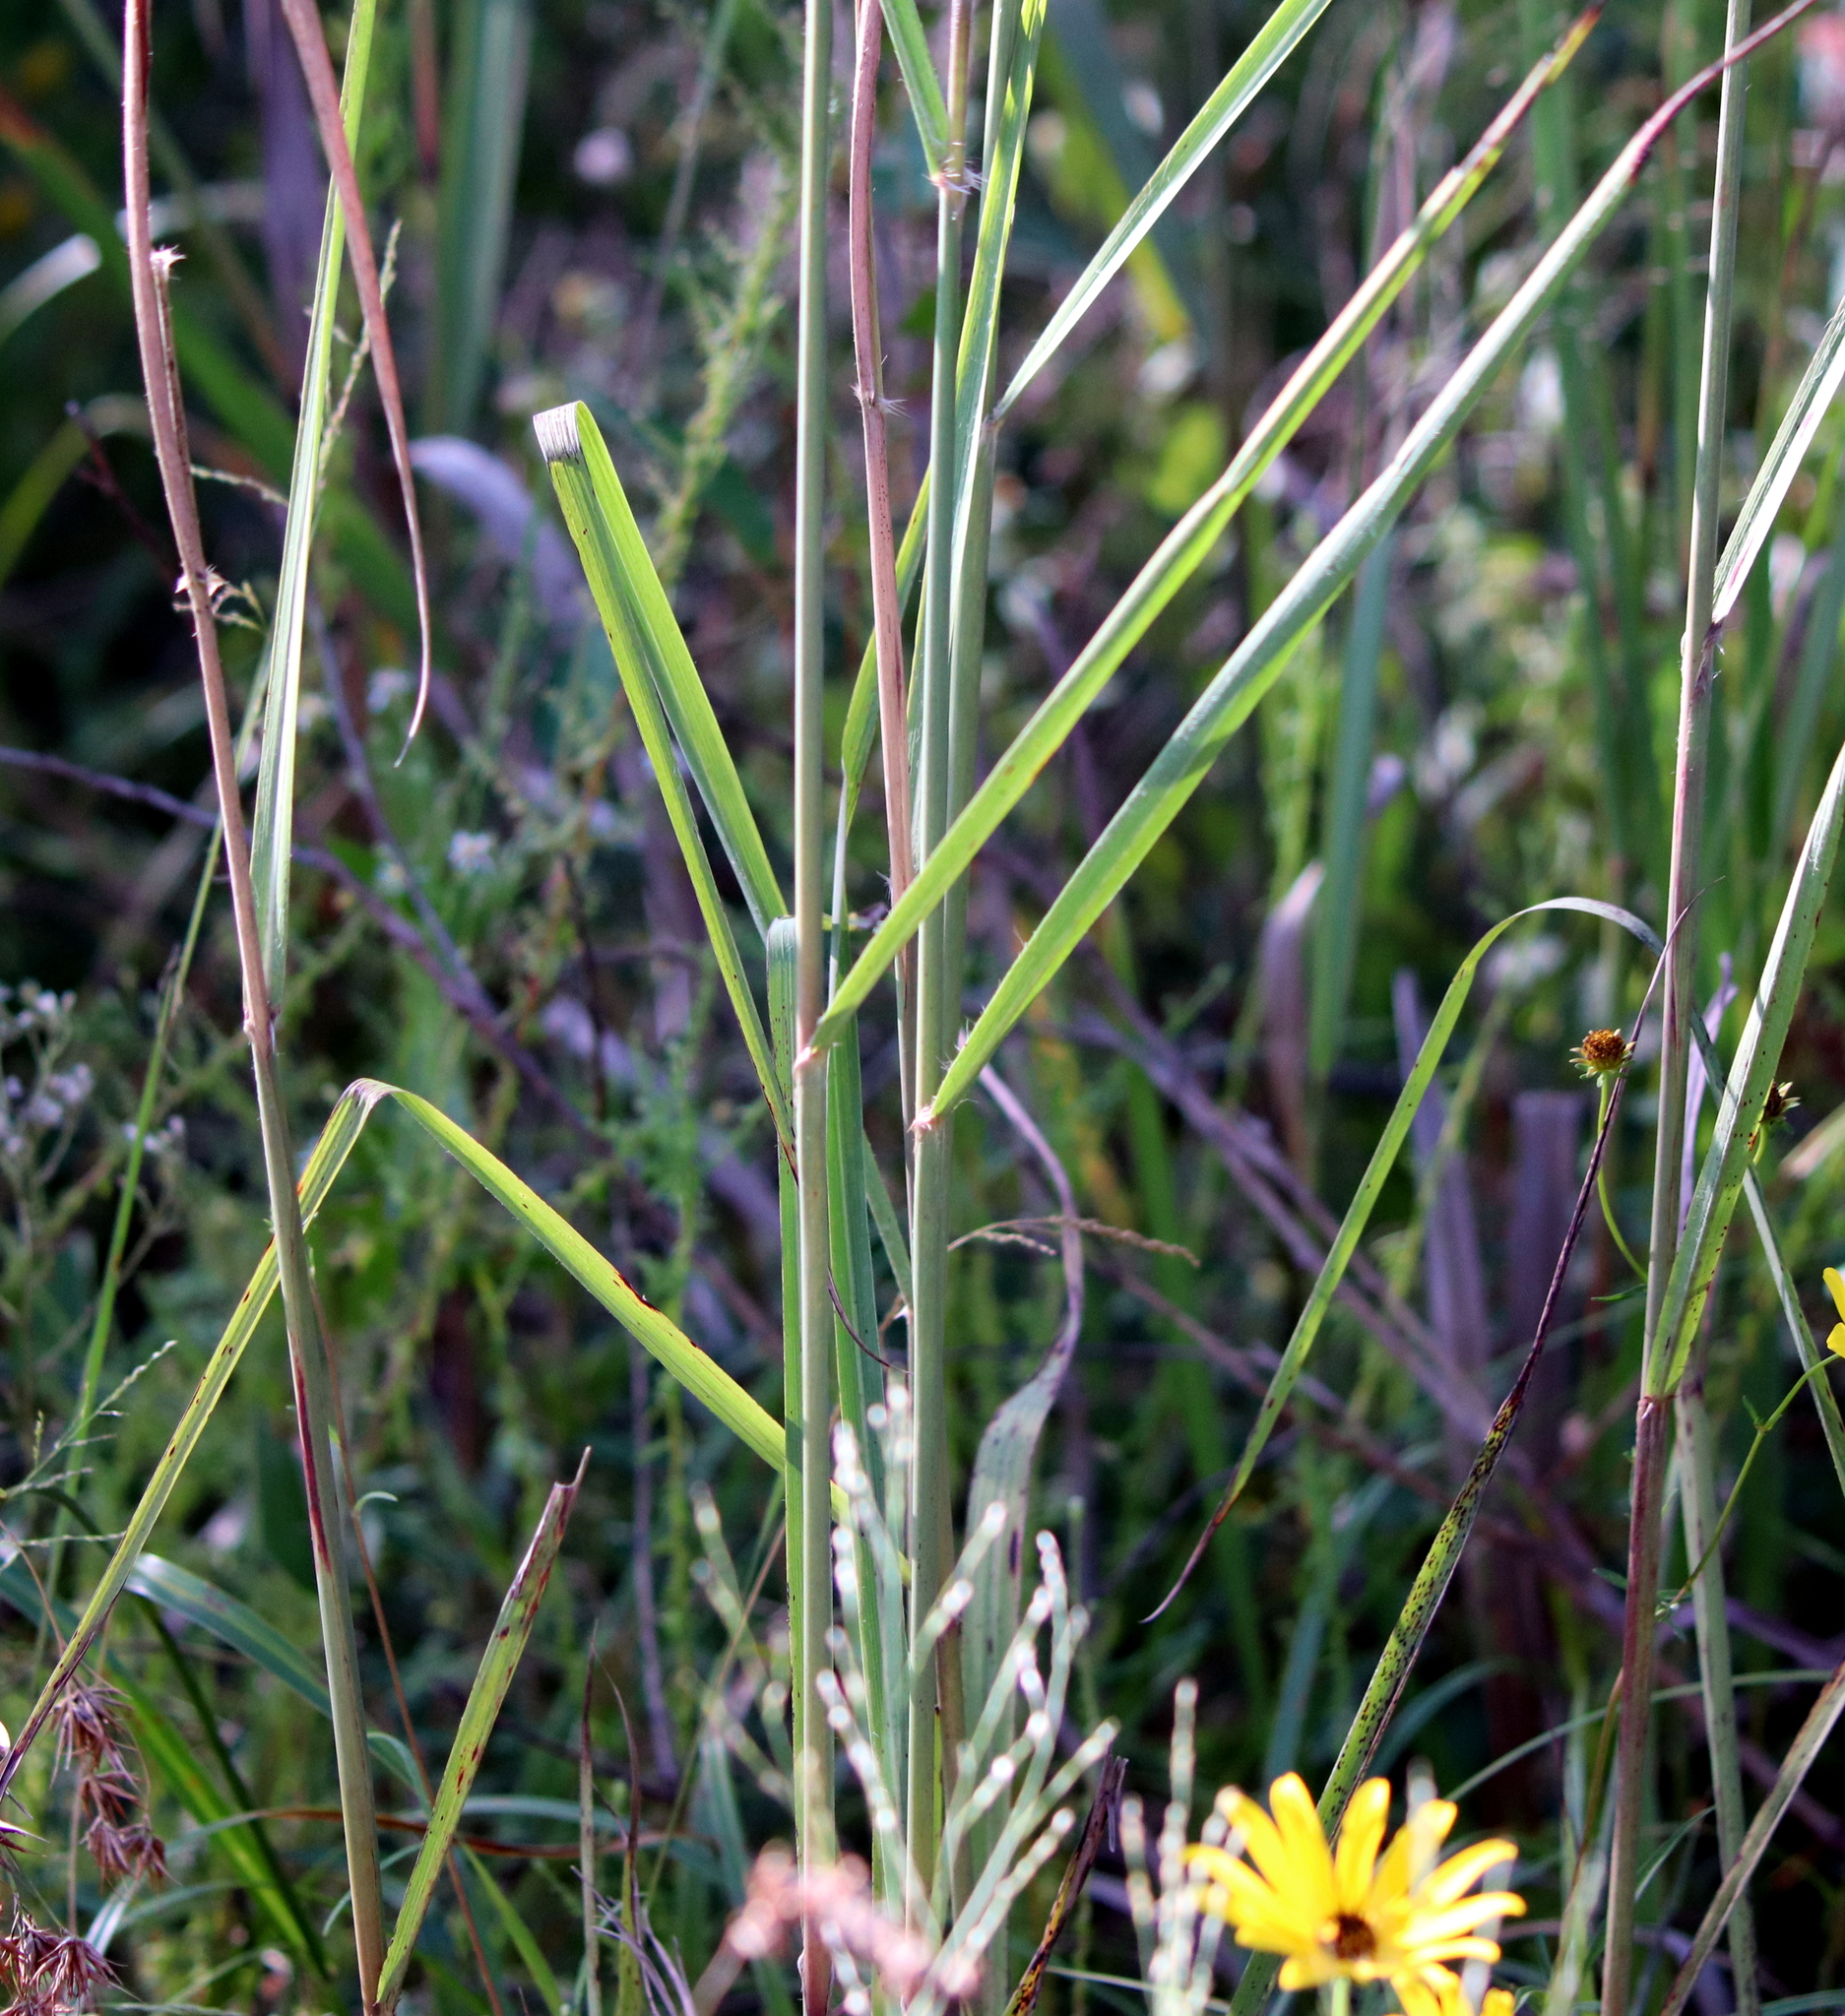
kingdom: Plantae
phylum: Tracheophyta
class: Liliopsida
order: Poales
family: Poaceae
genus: Erianthus
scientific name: Erianthus alopecuroides
